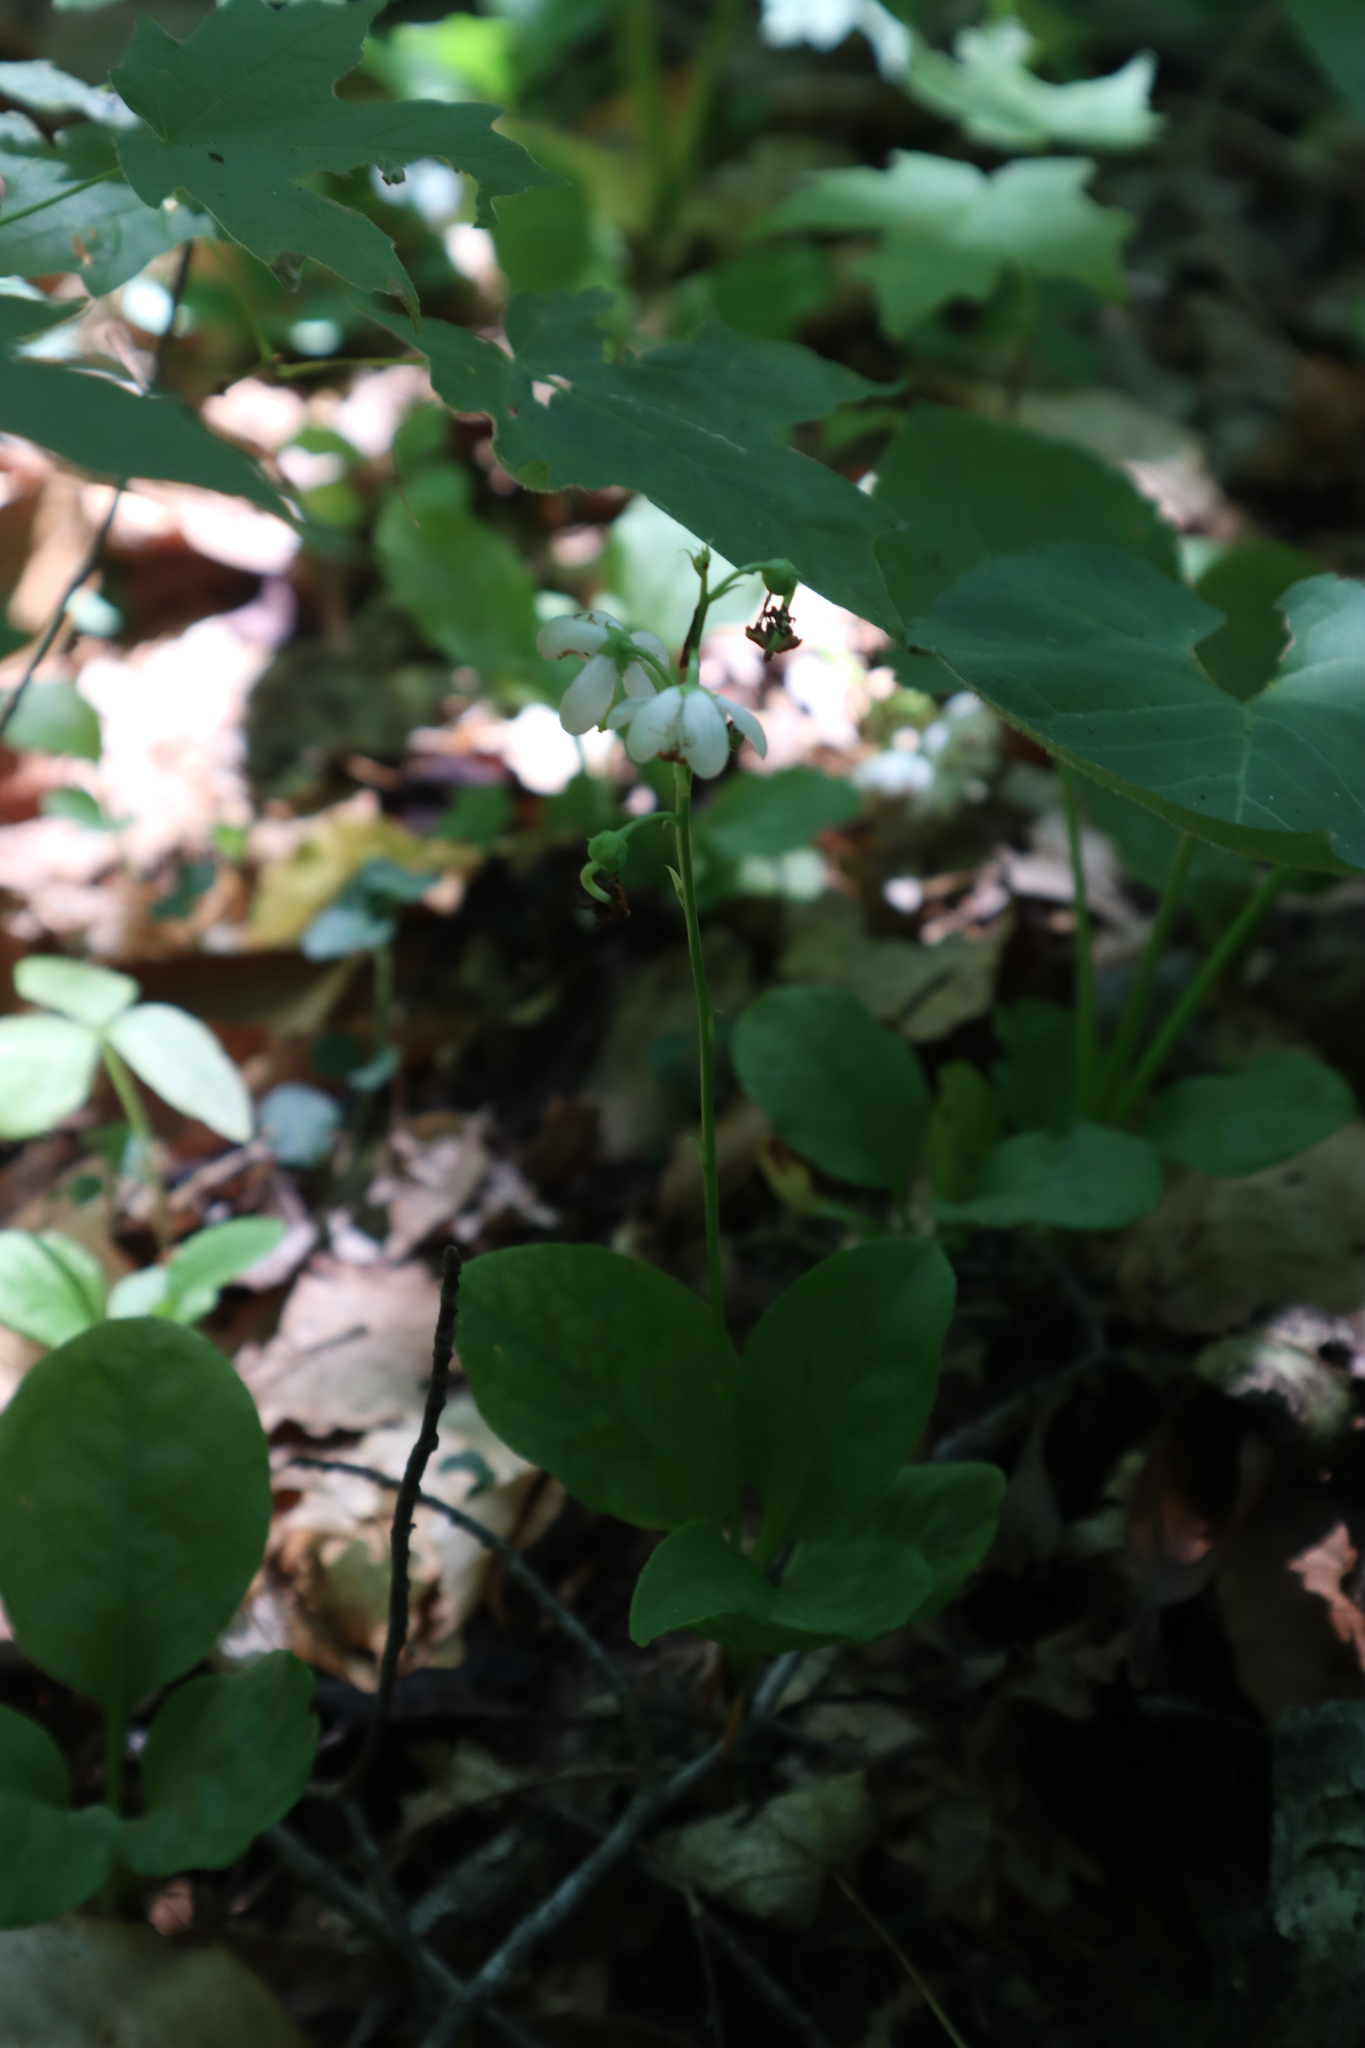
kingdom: Plantae
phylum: Tracheophyta
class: Magnoliopsida
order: Ericales
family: Ericaceae
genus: Pyrola
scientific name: Pyrola elliptica
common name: Shinleaf
